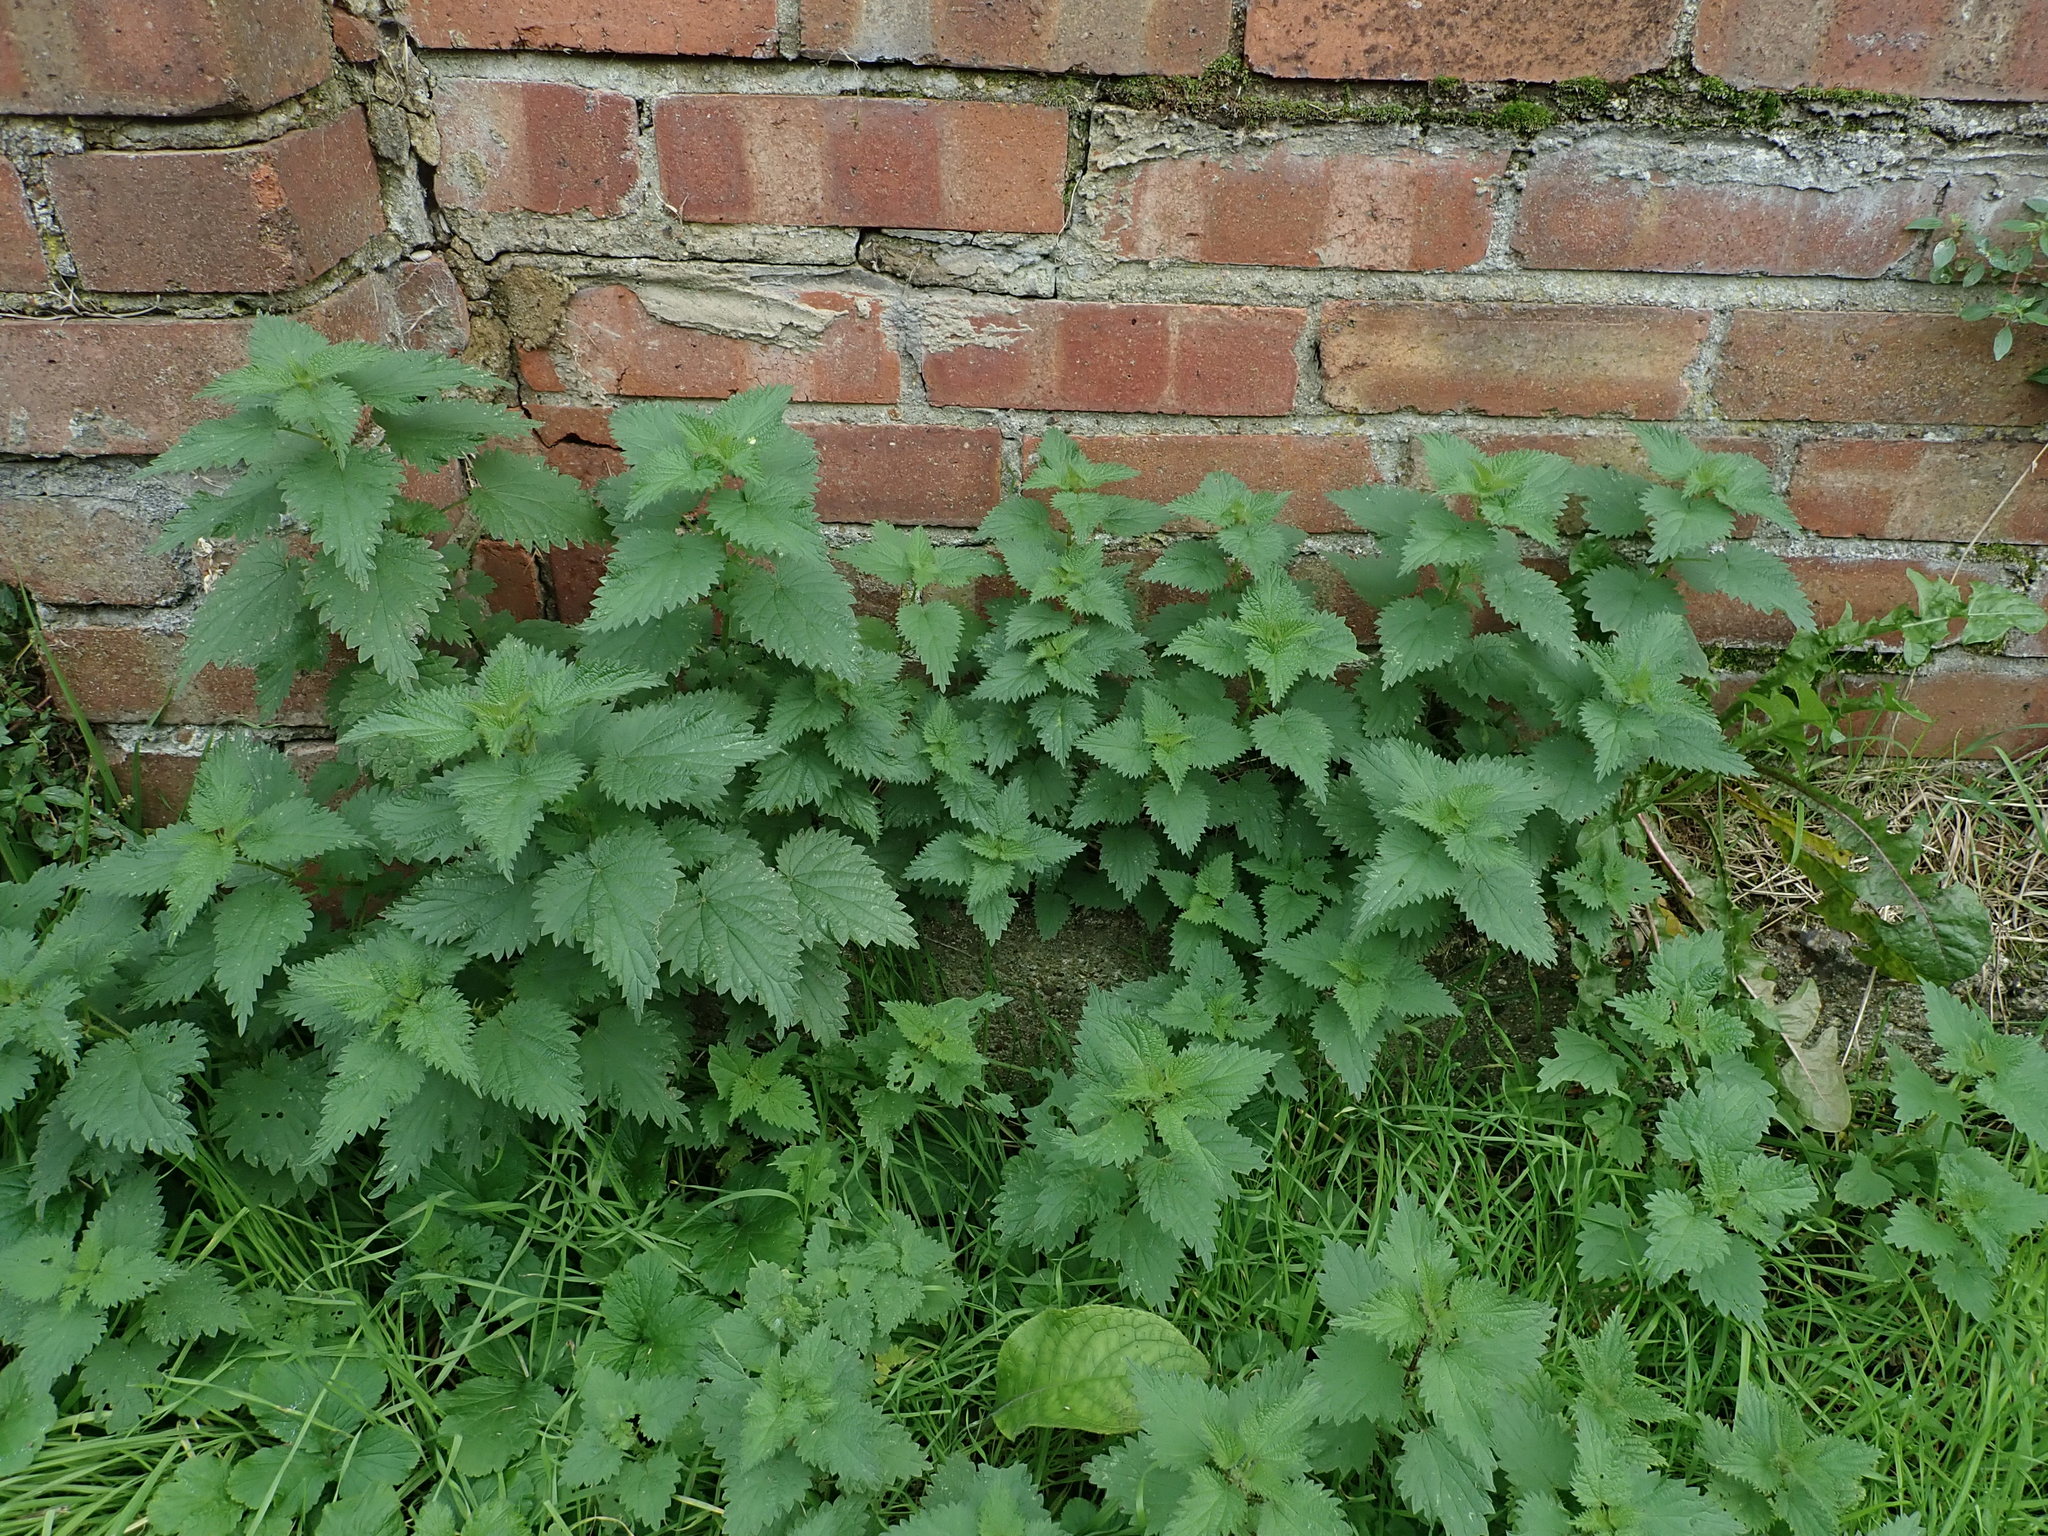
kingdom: Plantae
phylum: Tracheophyta
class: Magnoliopsida
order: Rosales
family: Urticaceae
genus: Urtica
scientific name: Urtica dioica
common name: Common nettle
